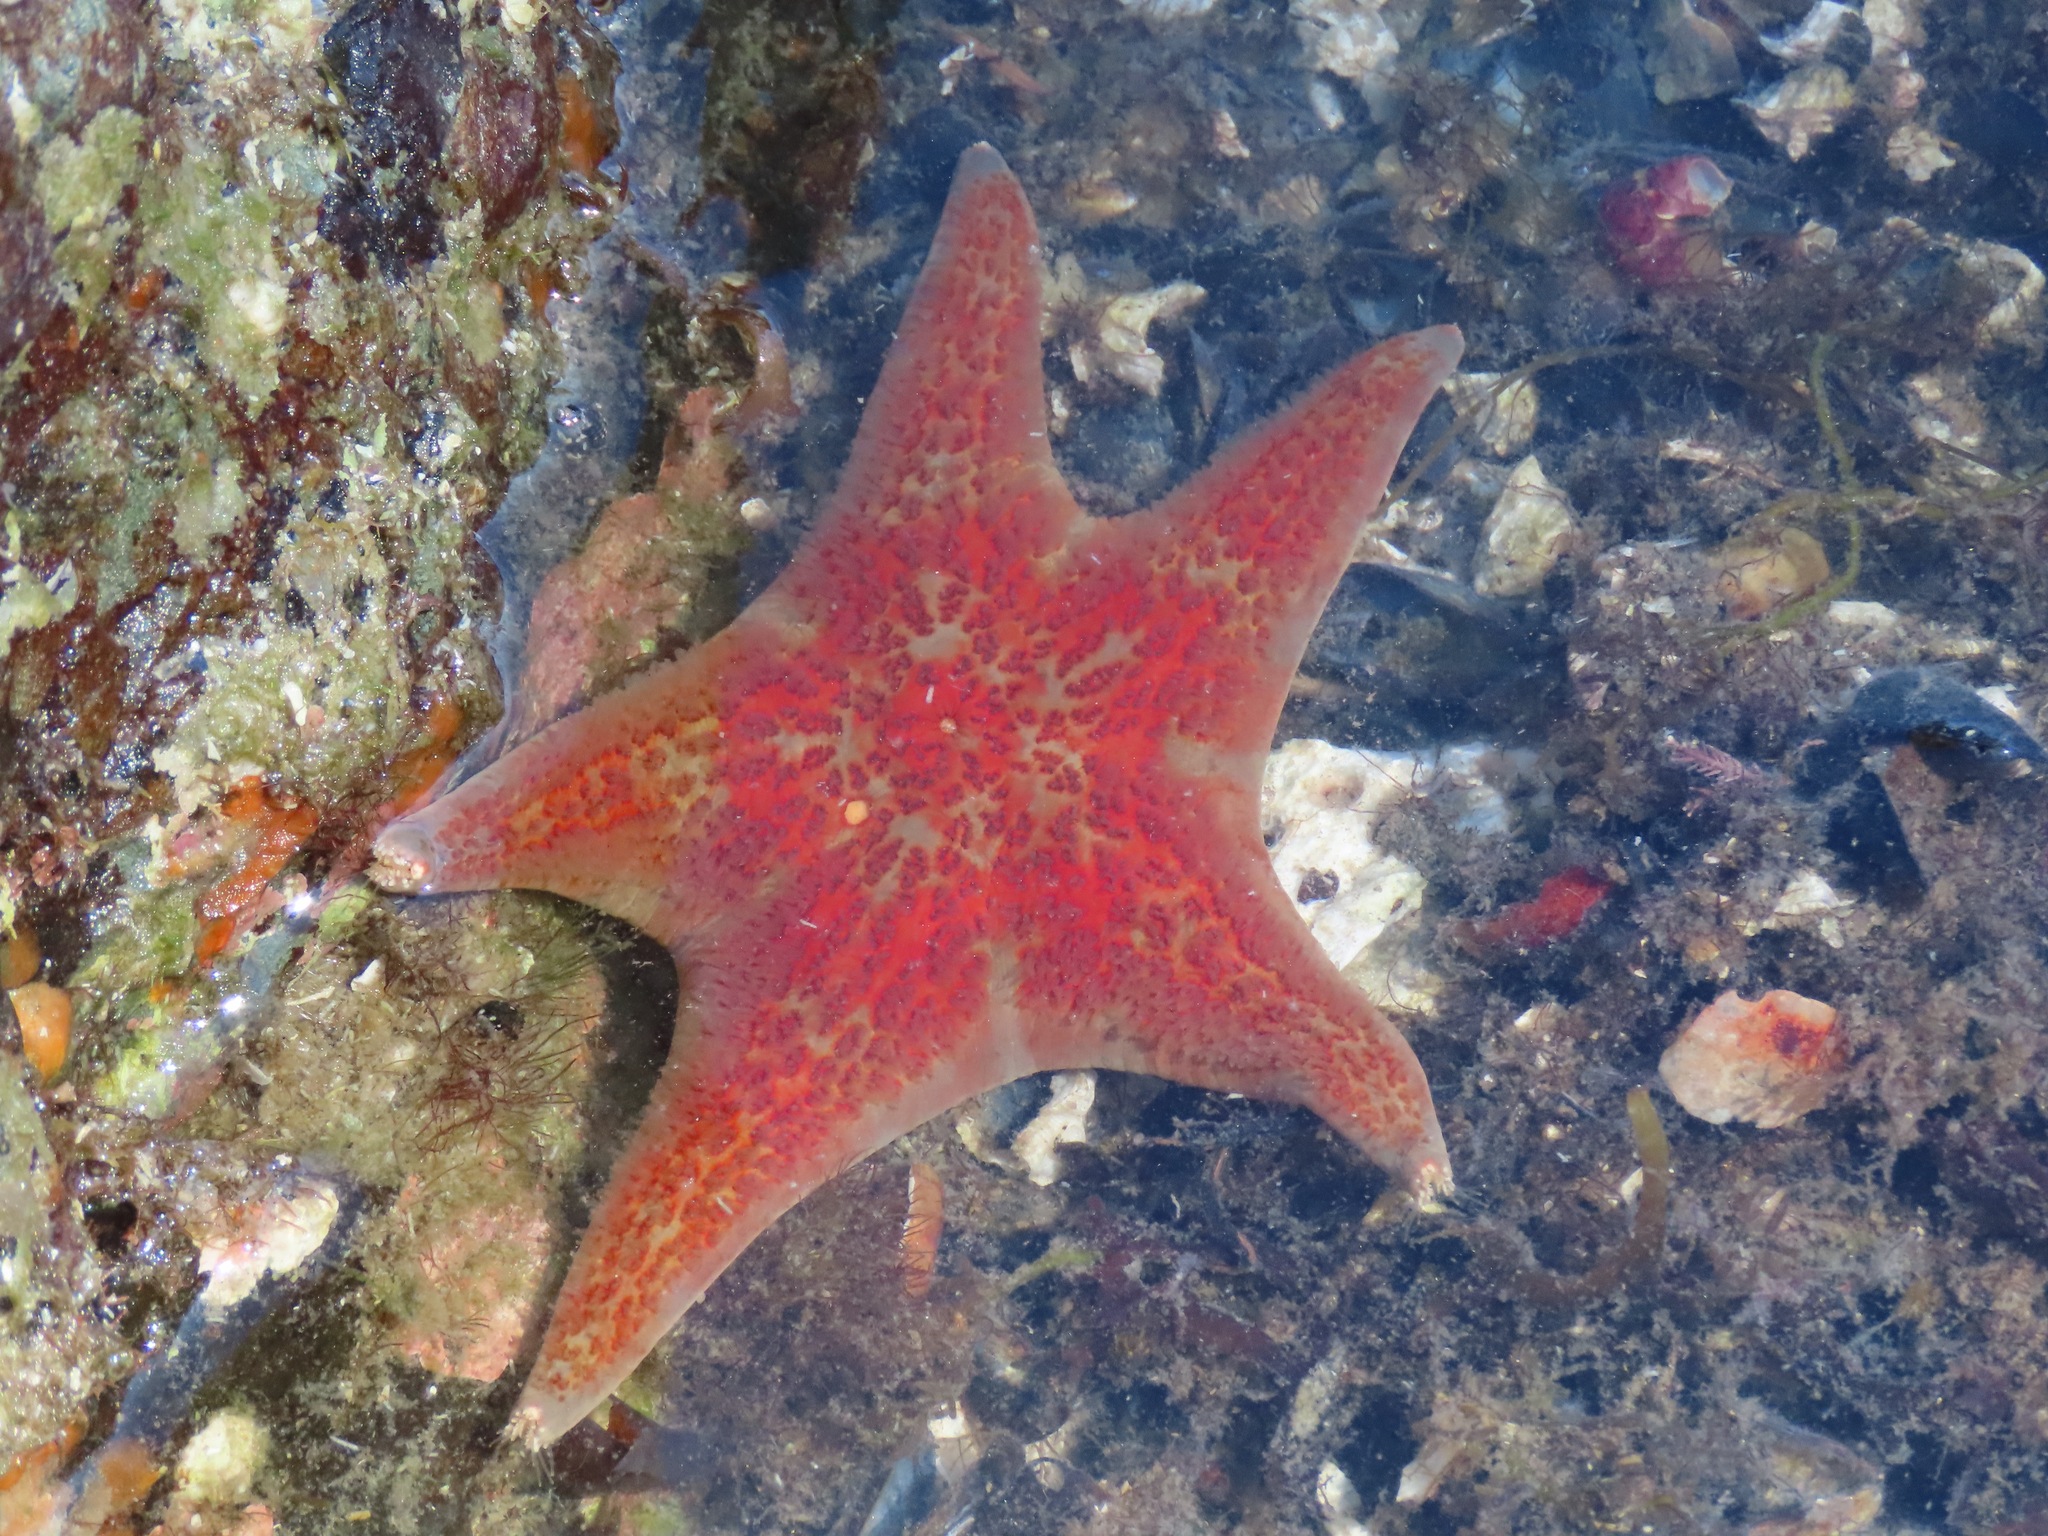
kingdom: Animalia
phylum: Echinodermata
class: Asteroidea
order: Valvatida
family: Asteropseidae
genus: Dermasterias
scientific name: Dermasterias imbricata
